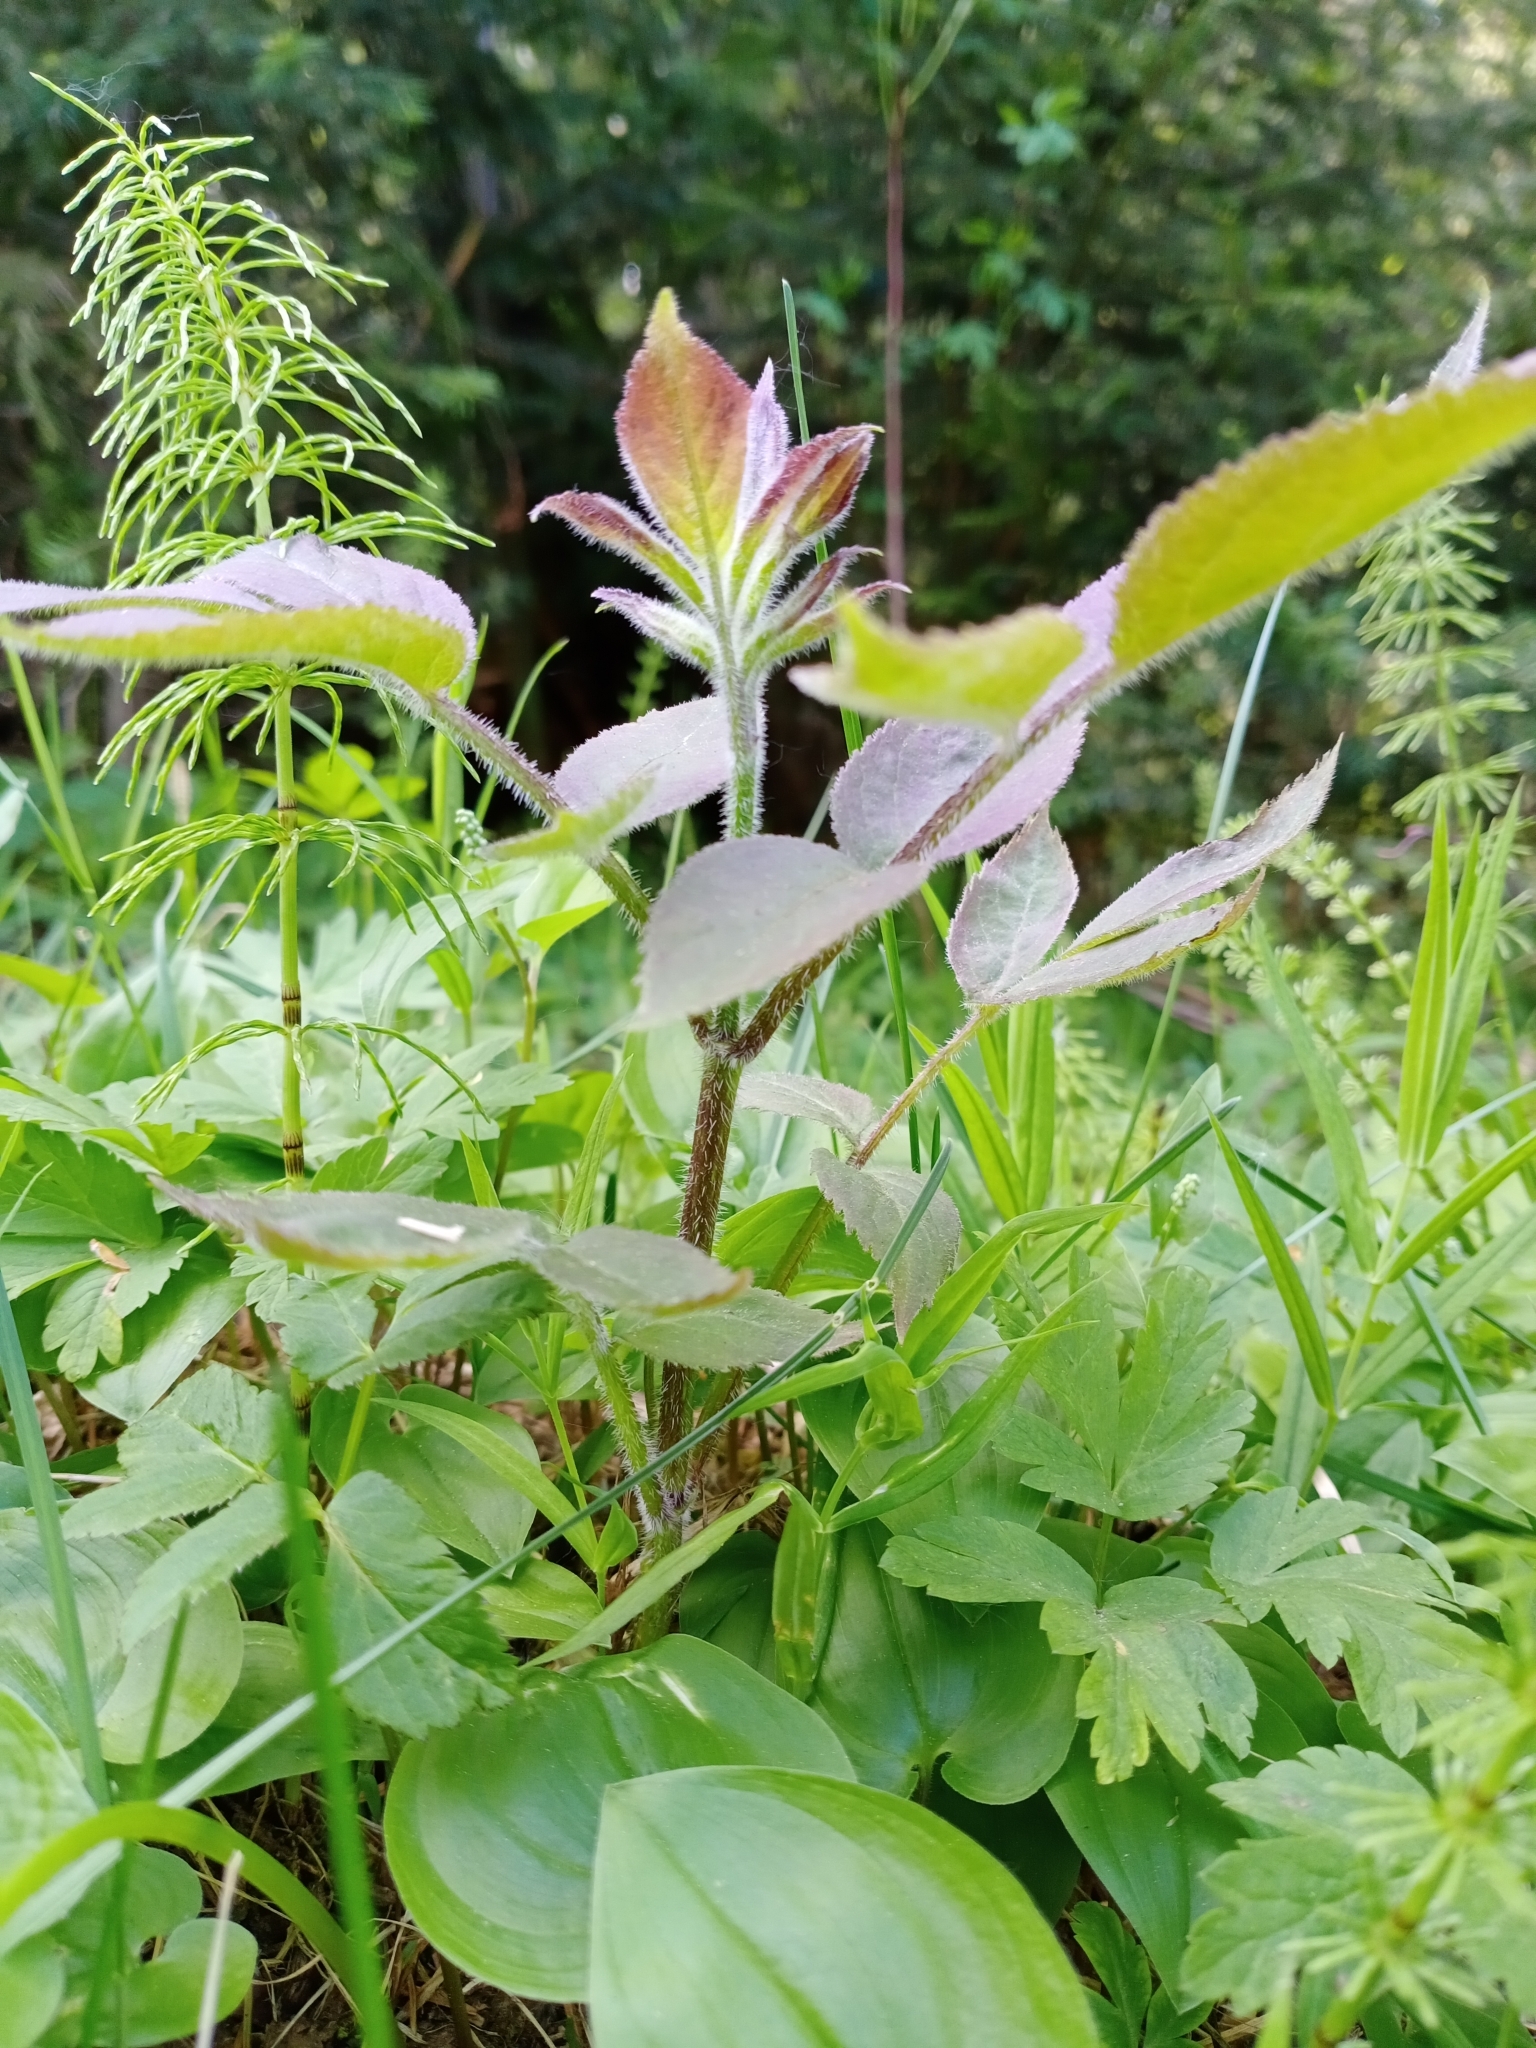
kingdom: Plantae
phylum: Tracheophyta
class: Magnoliopsida
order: Dipsacales
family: Viburnaceae
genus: Sambucus
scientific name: Sambucus sibirica
